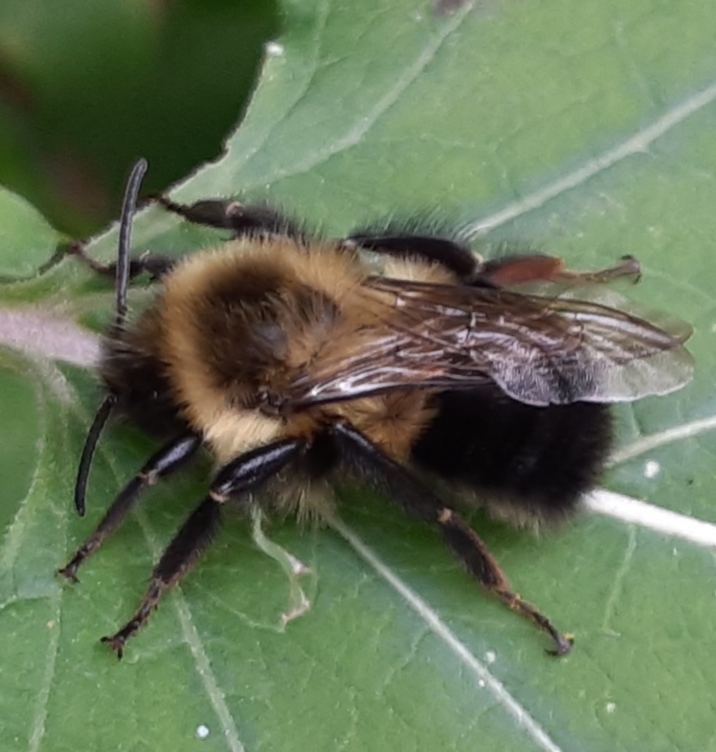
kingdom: Animalia
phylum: Arthropoda
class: Insecta
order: Hymenoptera
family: Apidae
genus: Bombus
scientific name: Bombus impatiens
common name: Common eastern bumble bee
